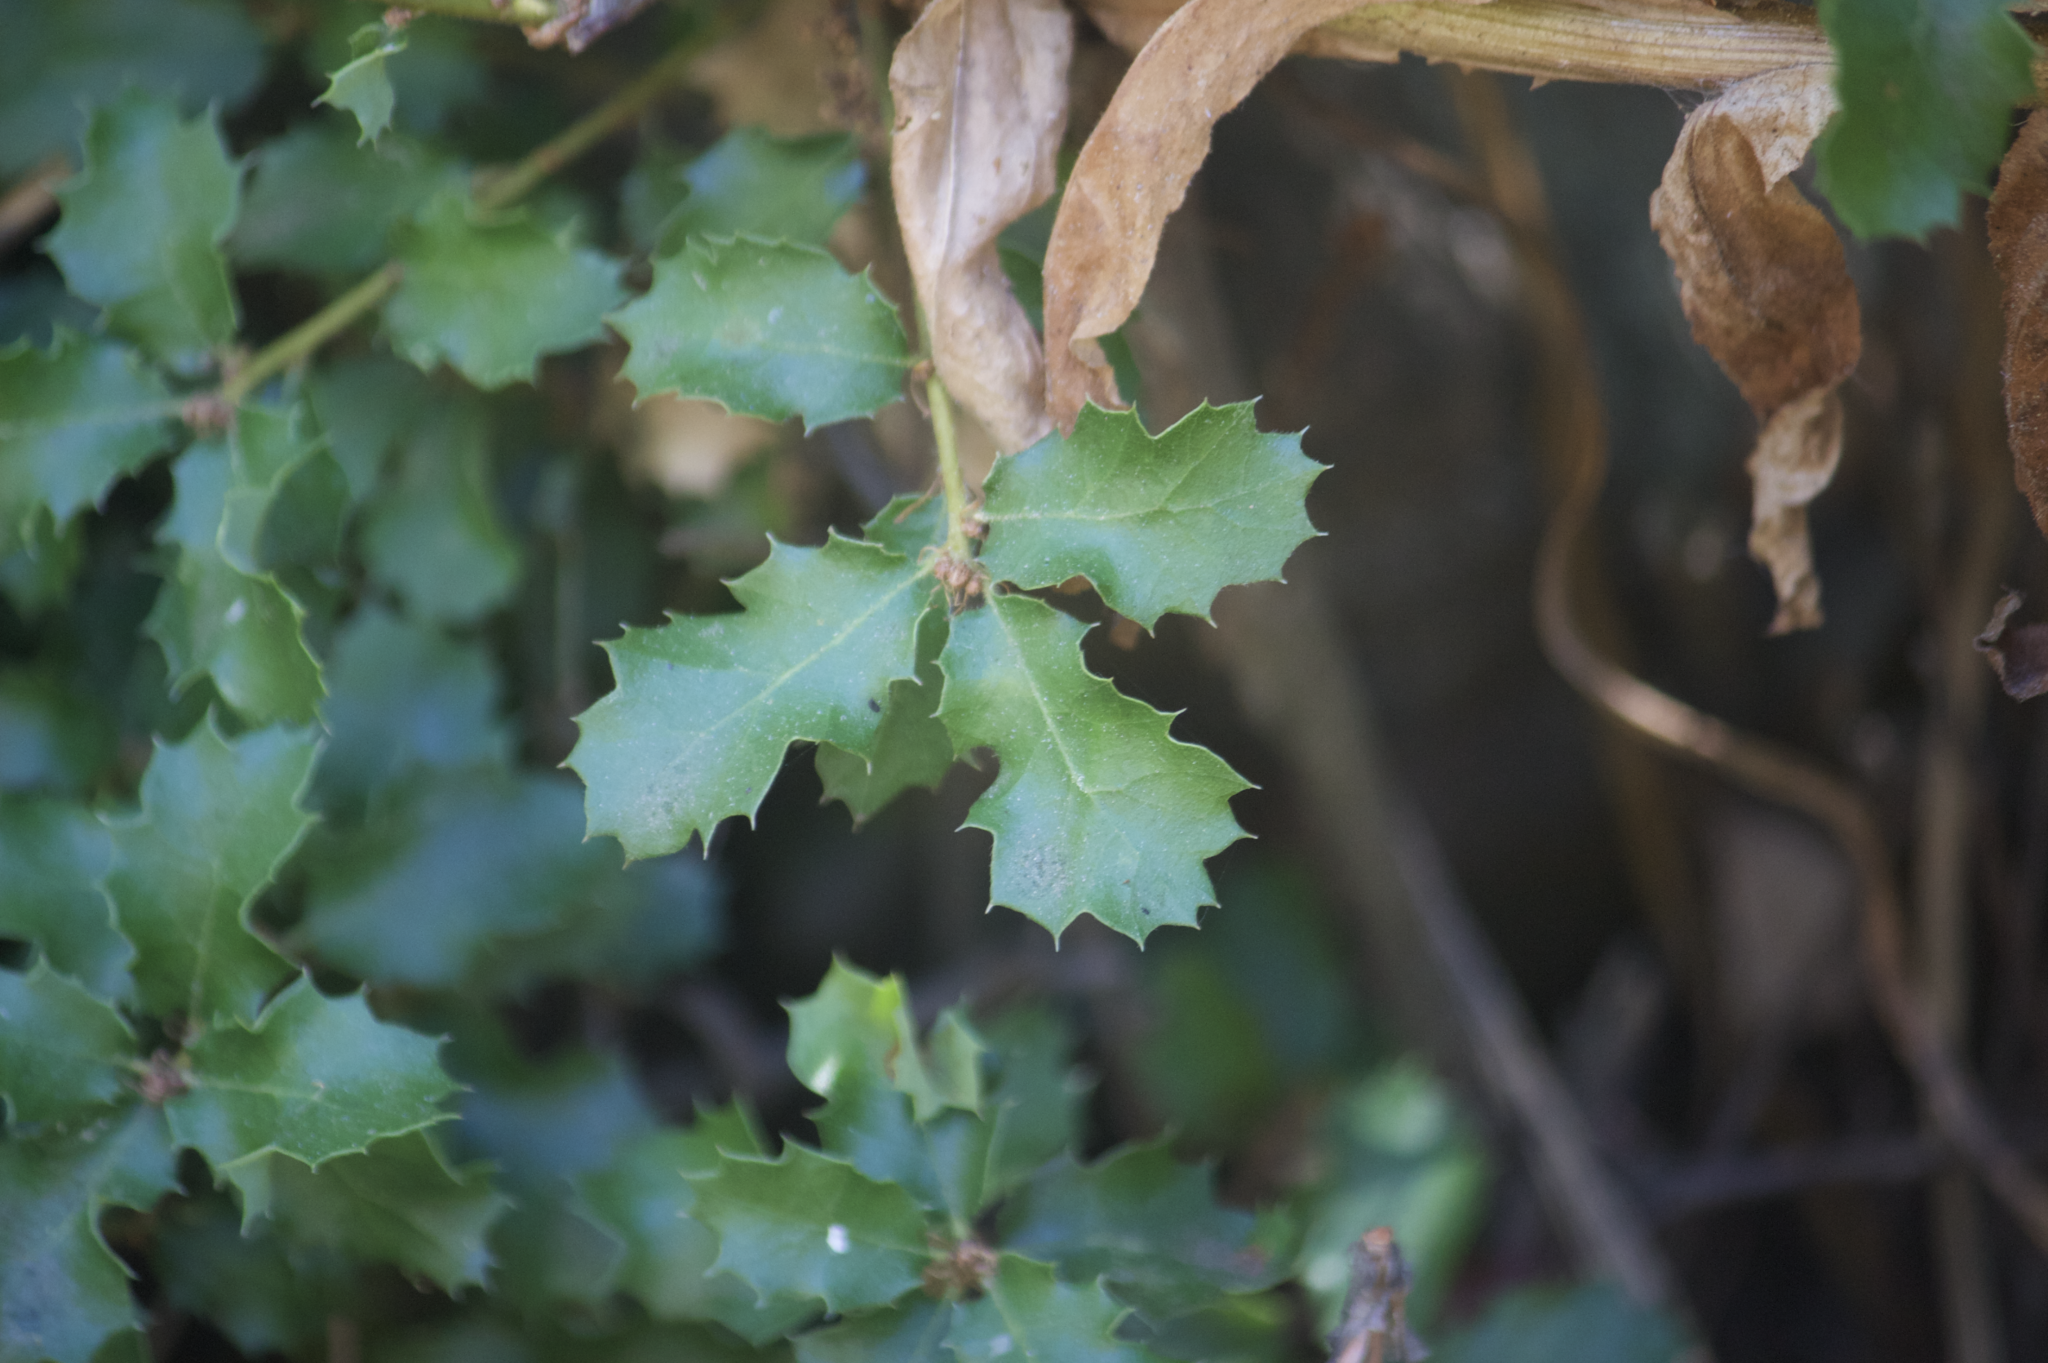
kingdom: Plantae
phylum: Tracheophyta
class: Magnoliopsida
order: Fagales
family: Fagaceae
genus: Quercus
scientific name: Quercus berberidifolia
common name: California scrub oak
